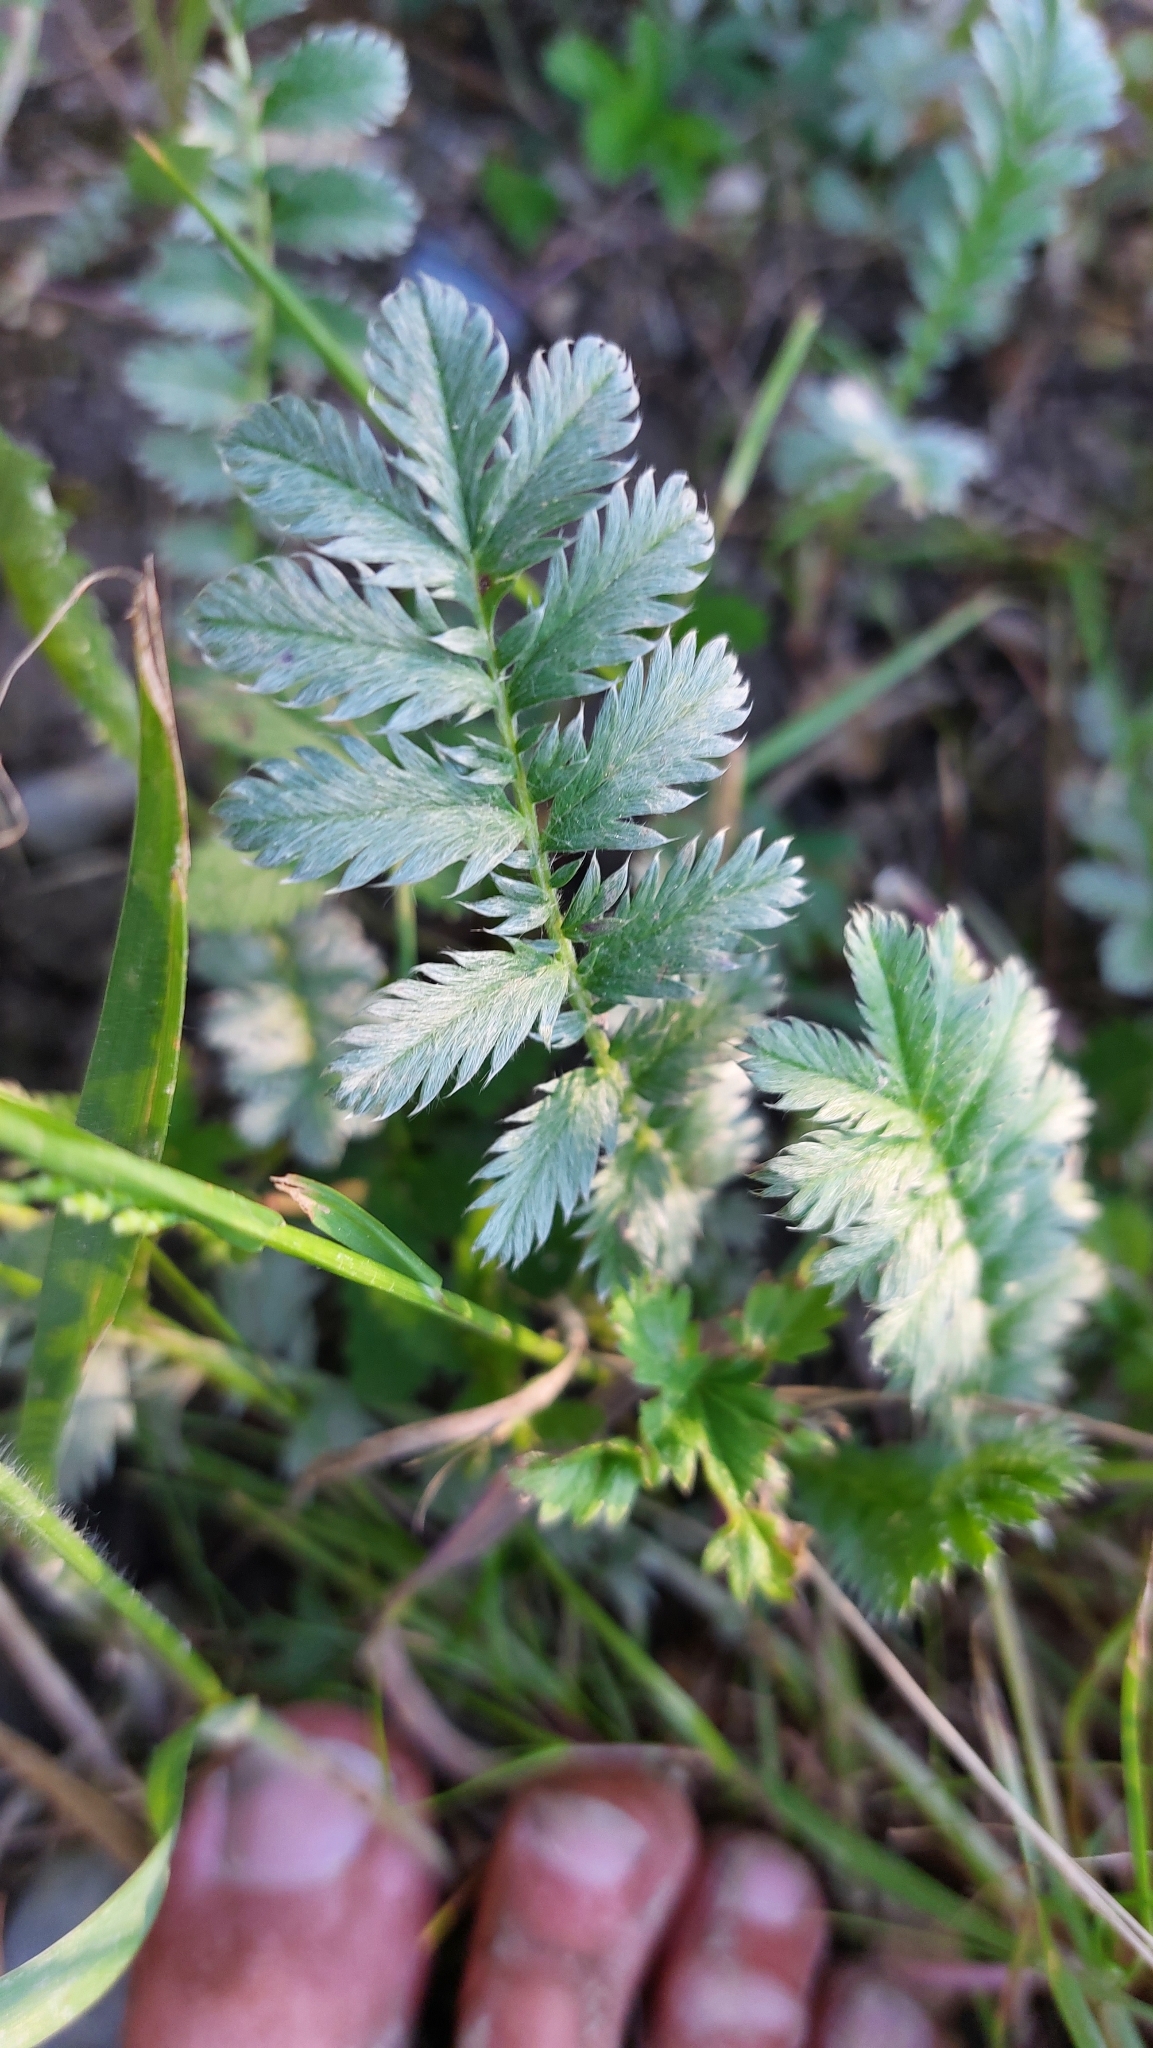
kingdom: Plantae
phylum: Tracheophyta
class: Magnoliopsida
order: Rosales
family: Rosaceae
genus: Argentina
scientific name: Argentina anserina
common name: Common silverweed
